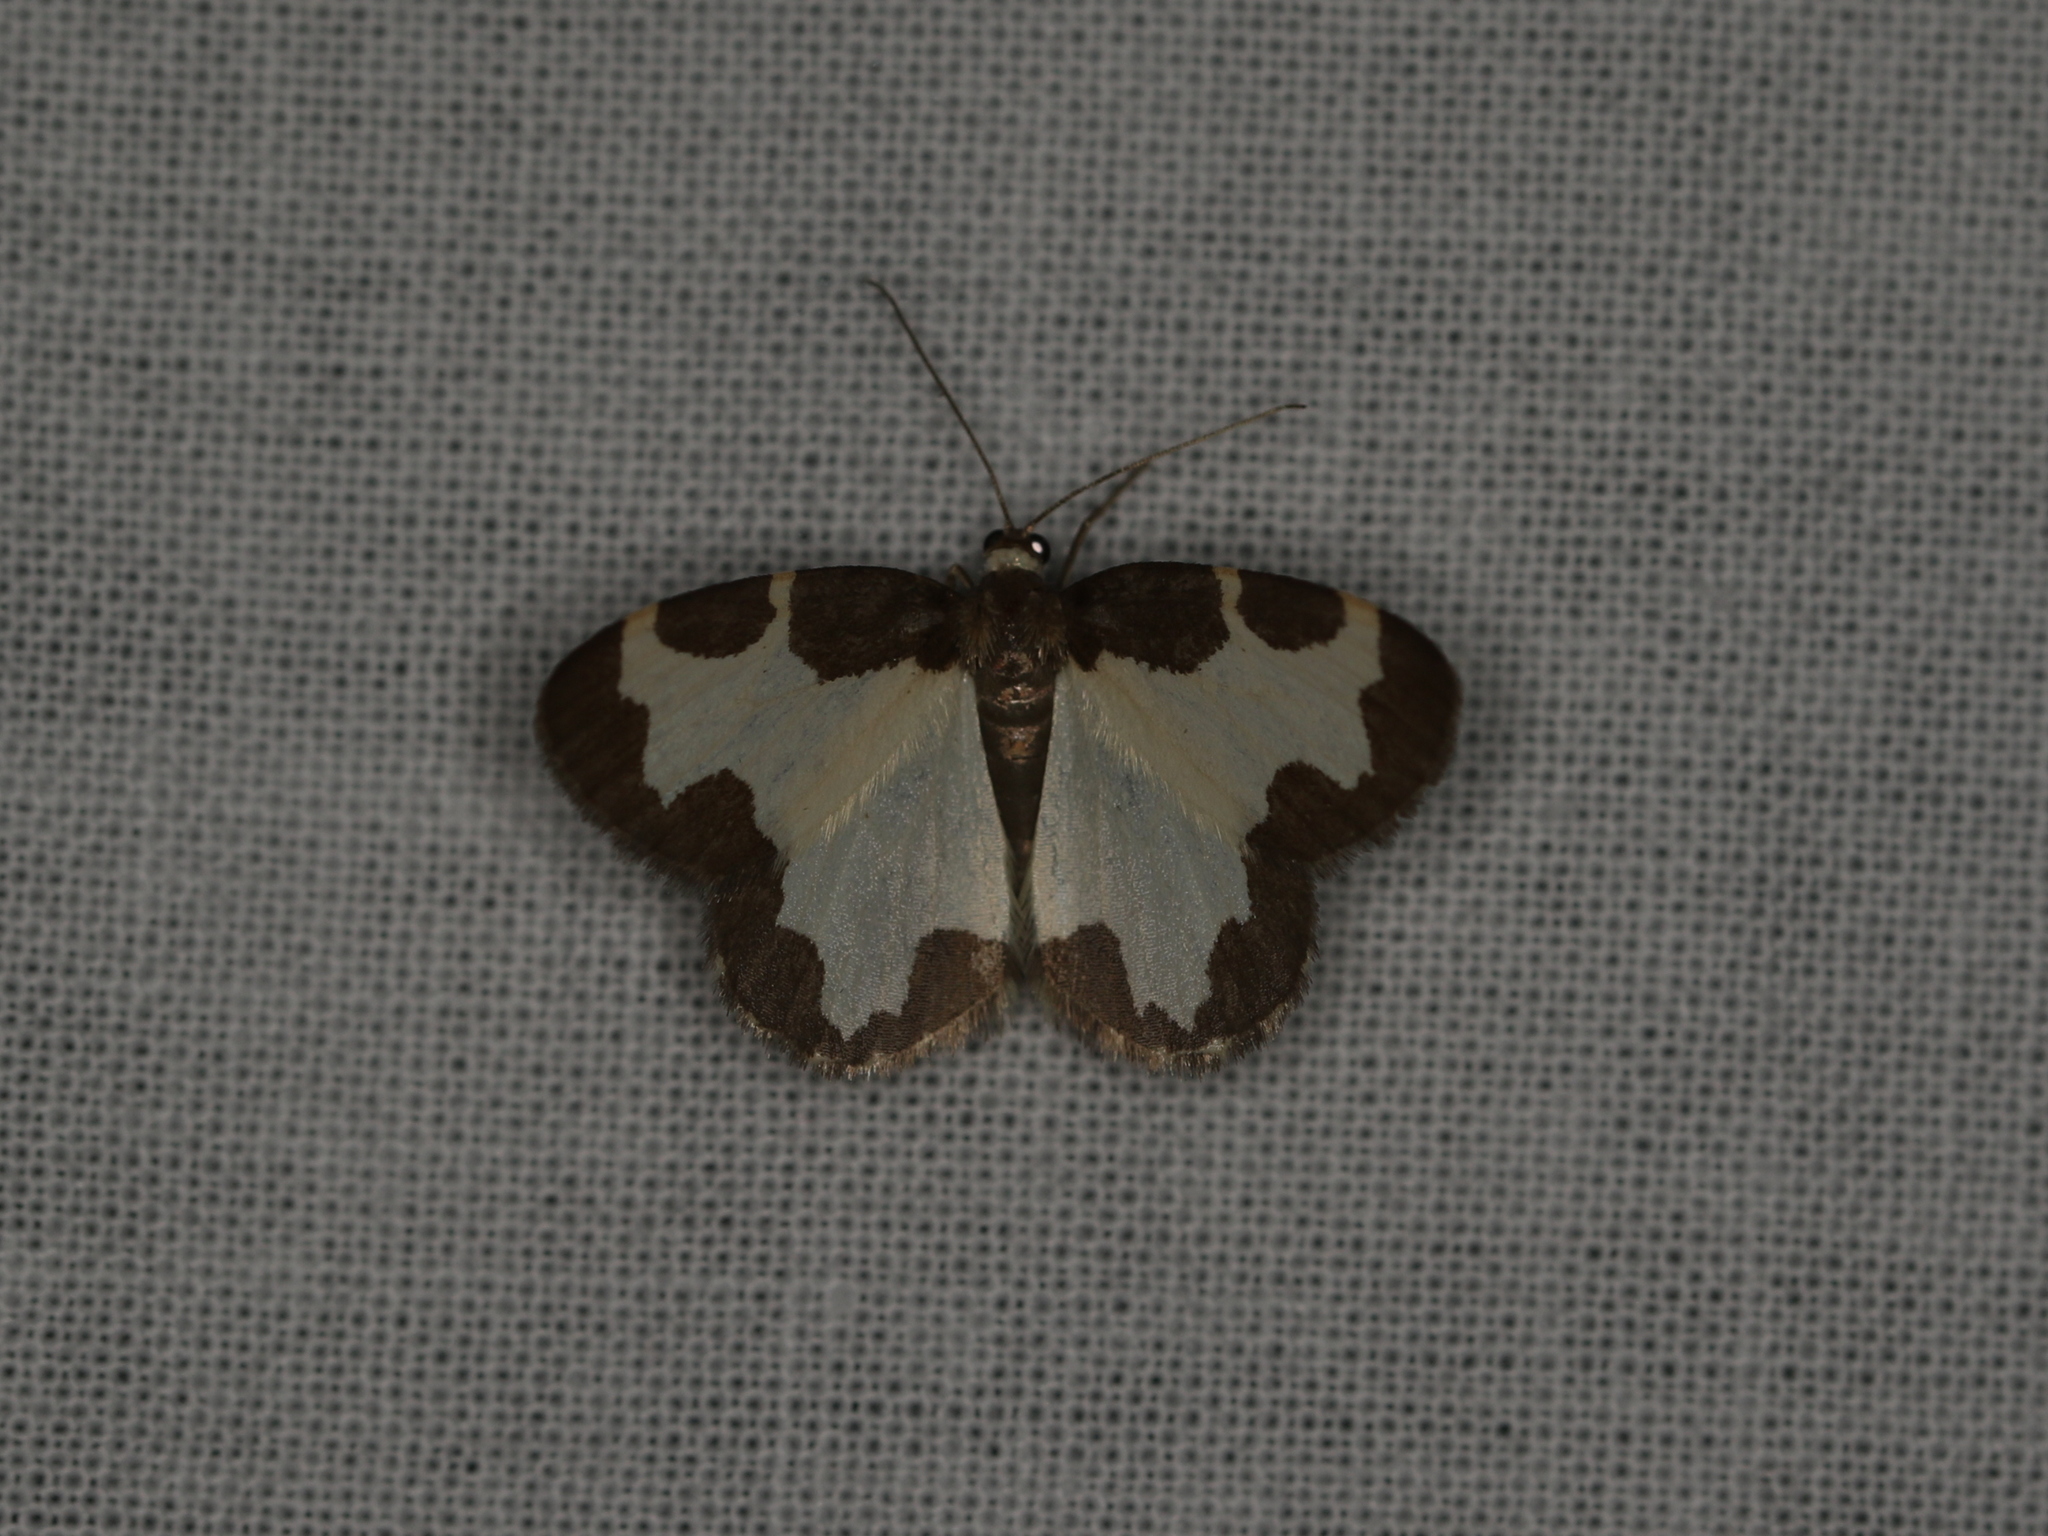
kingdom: Animalia
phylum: Arthropoda
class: Insecta
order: Lepidoptera
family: Geometridae
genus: Lomaspilis
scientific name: Lomaspilis marginata
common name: Clouded border
